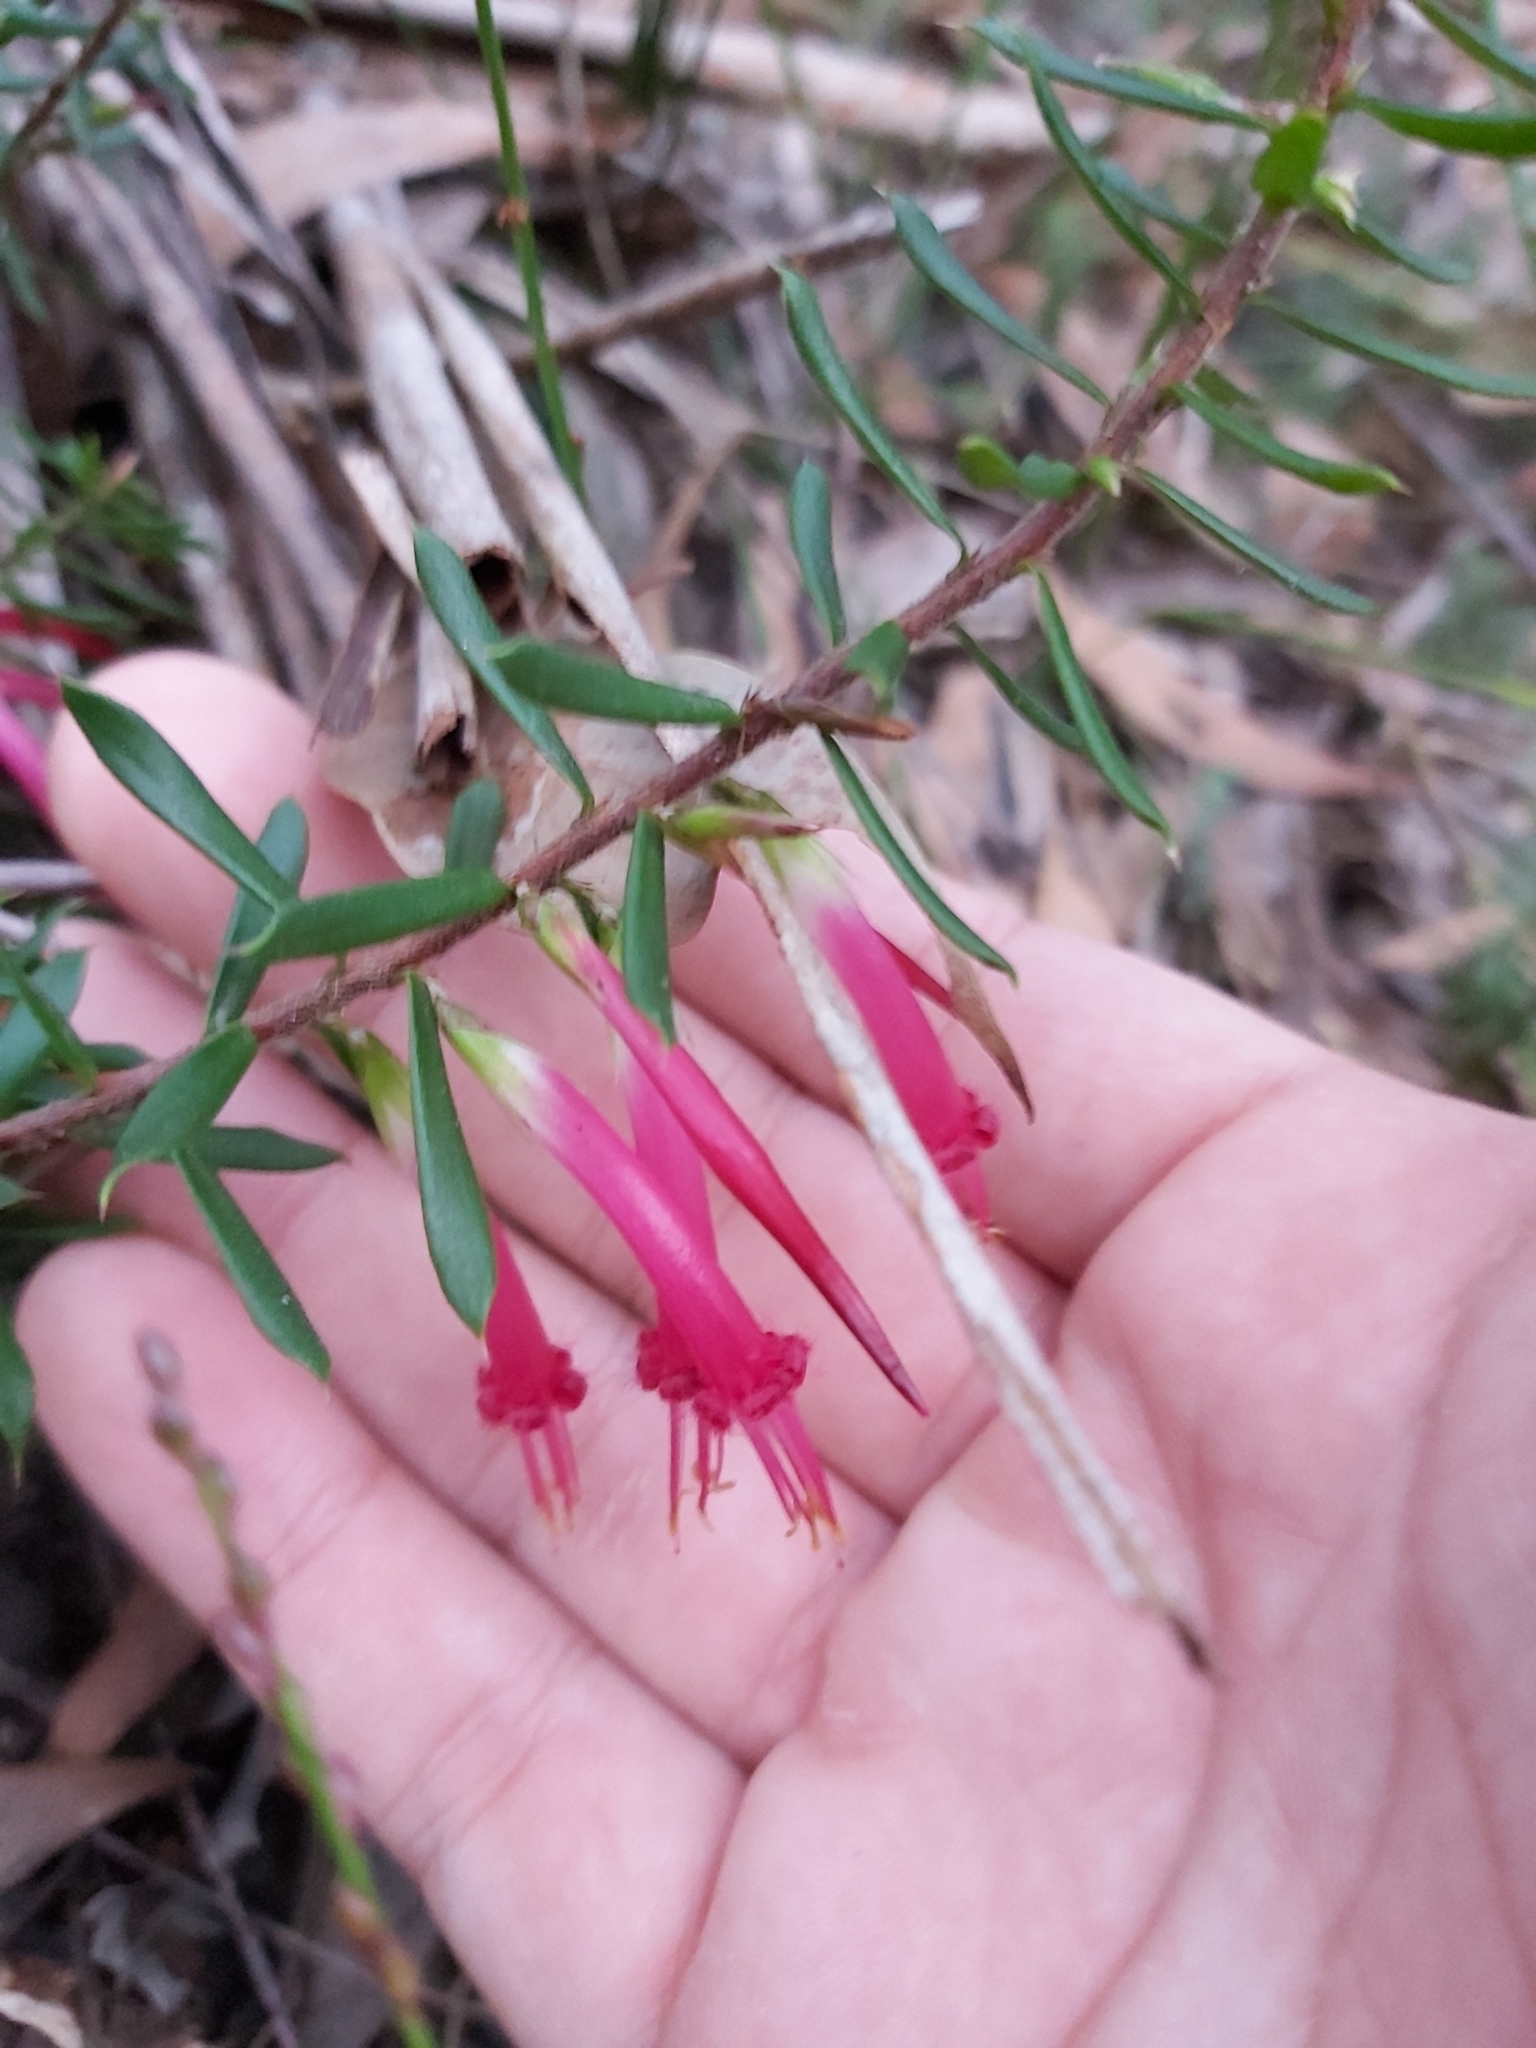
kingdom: Plantae
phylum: Tracheophyta
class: Magnoliopsida
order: Ericales
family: Ericaceae
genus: Styphelia
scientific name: Styphelia tubiflora
